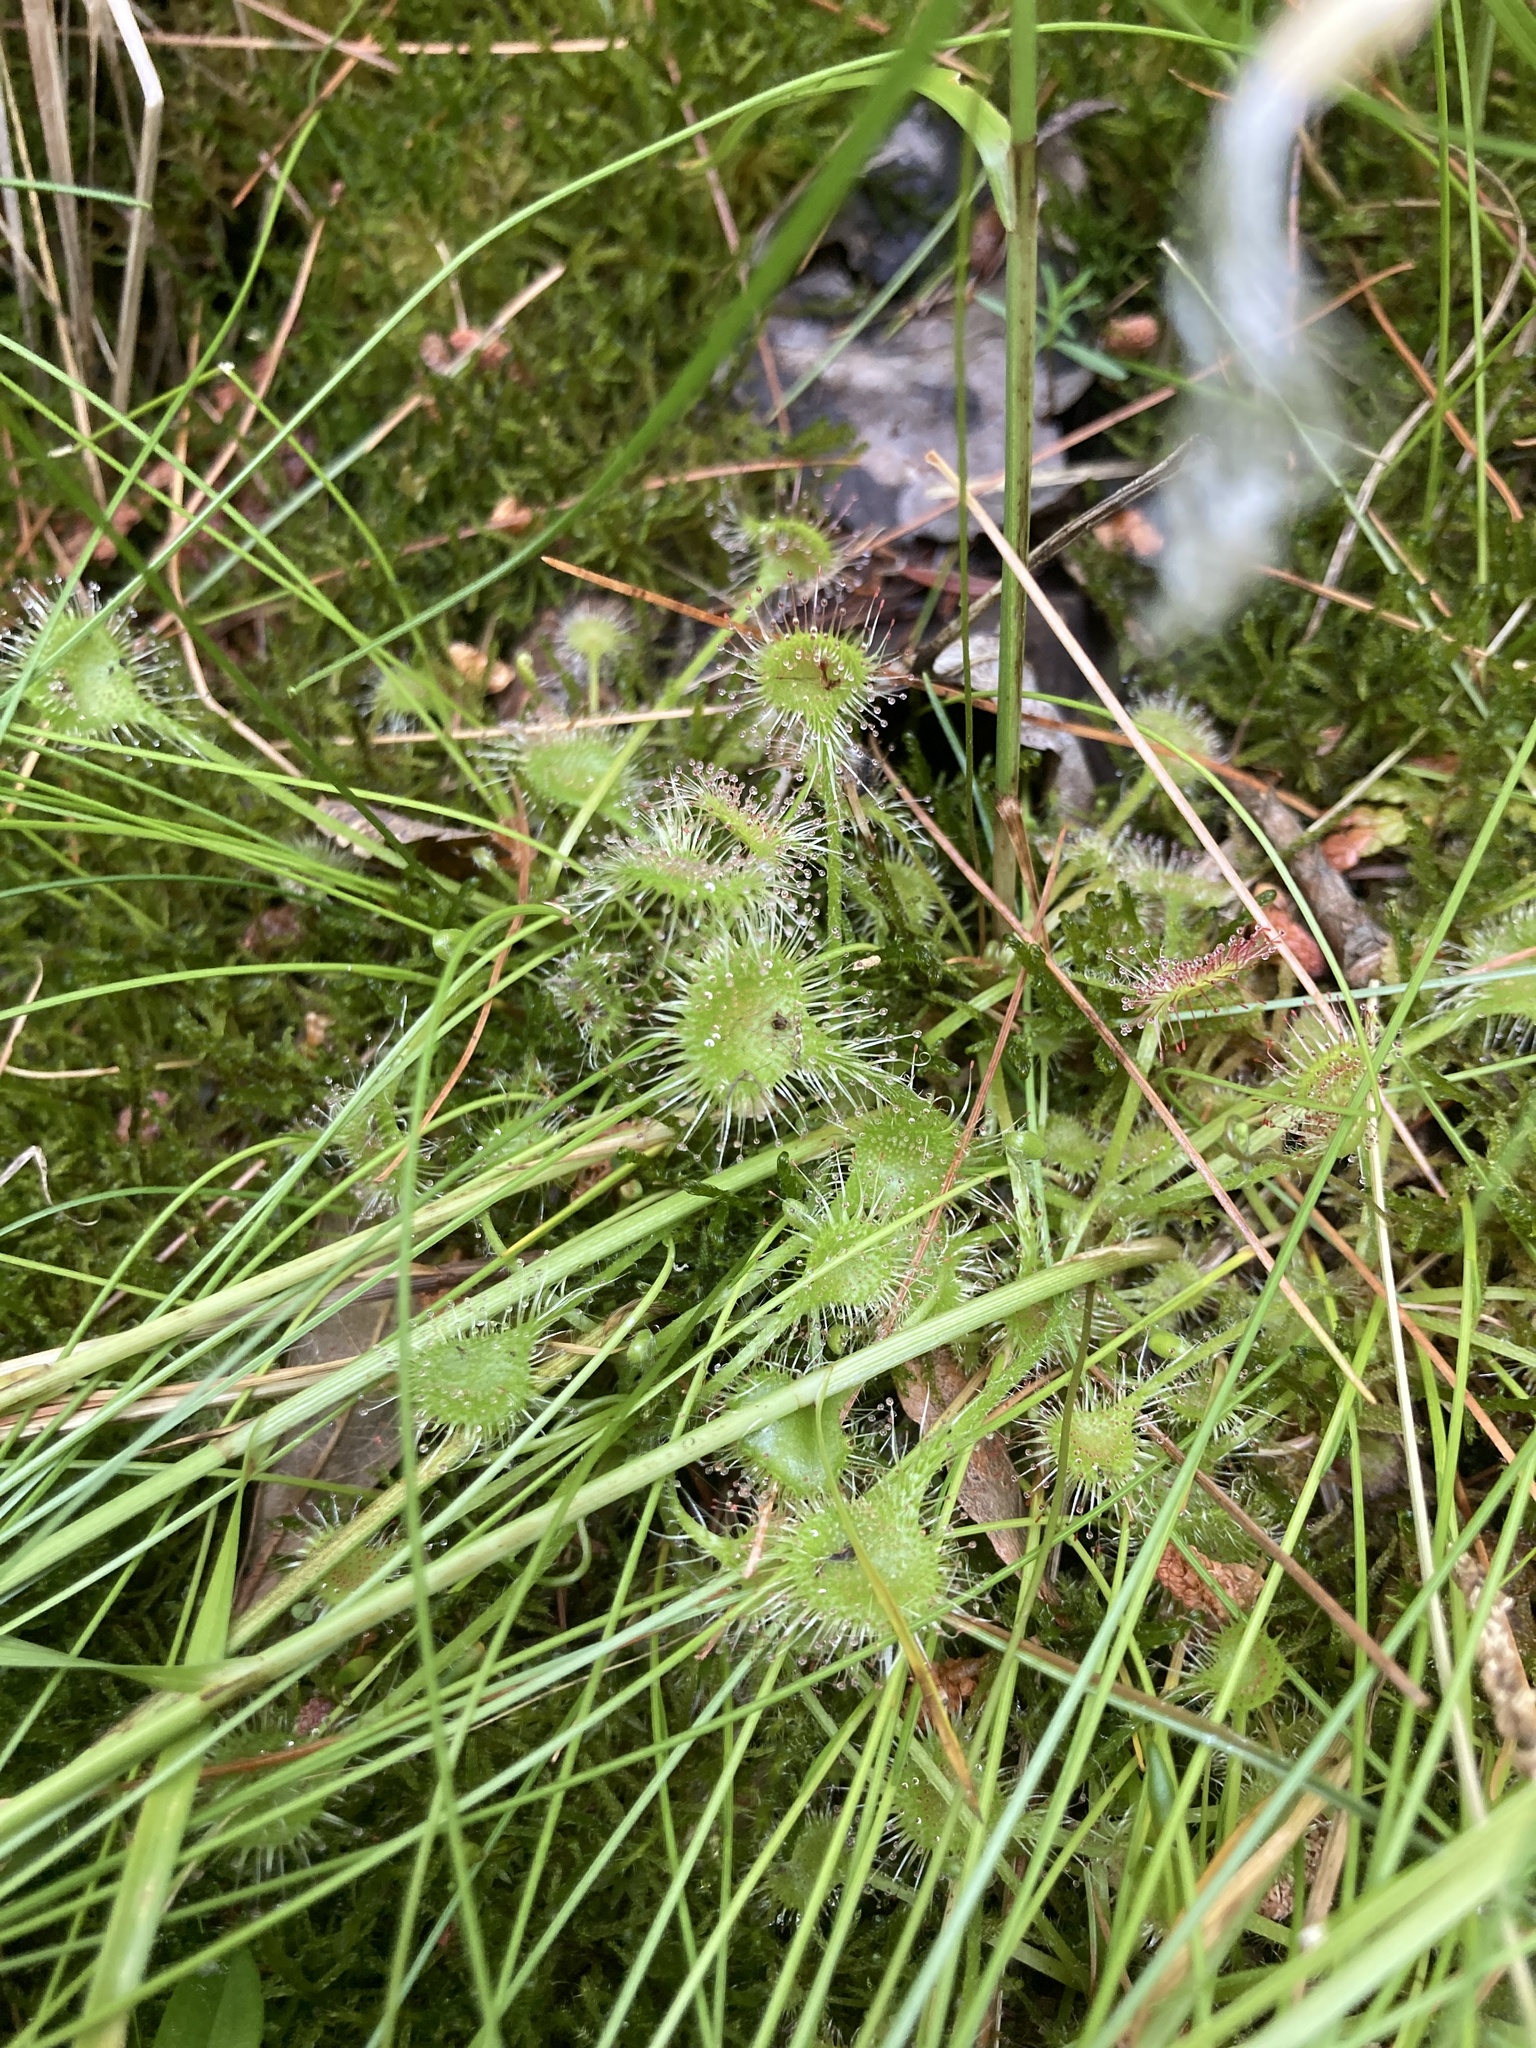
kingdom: Plantae
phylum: Tracheophyta
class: Magnoliopsida
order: Caryophyllales
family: Droseraceae
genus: Drosera
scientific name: Drosera rotundifolia
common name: Round-leaved sundew
